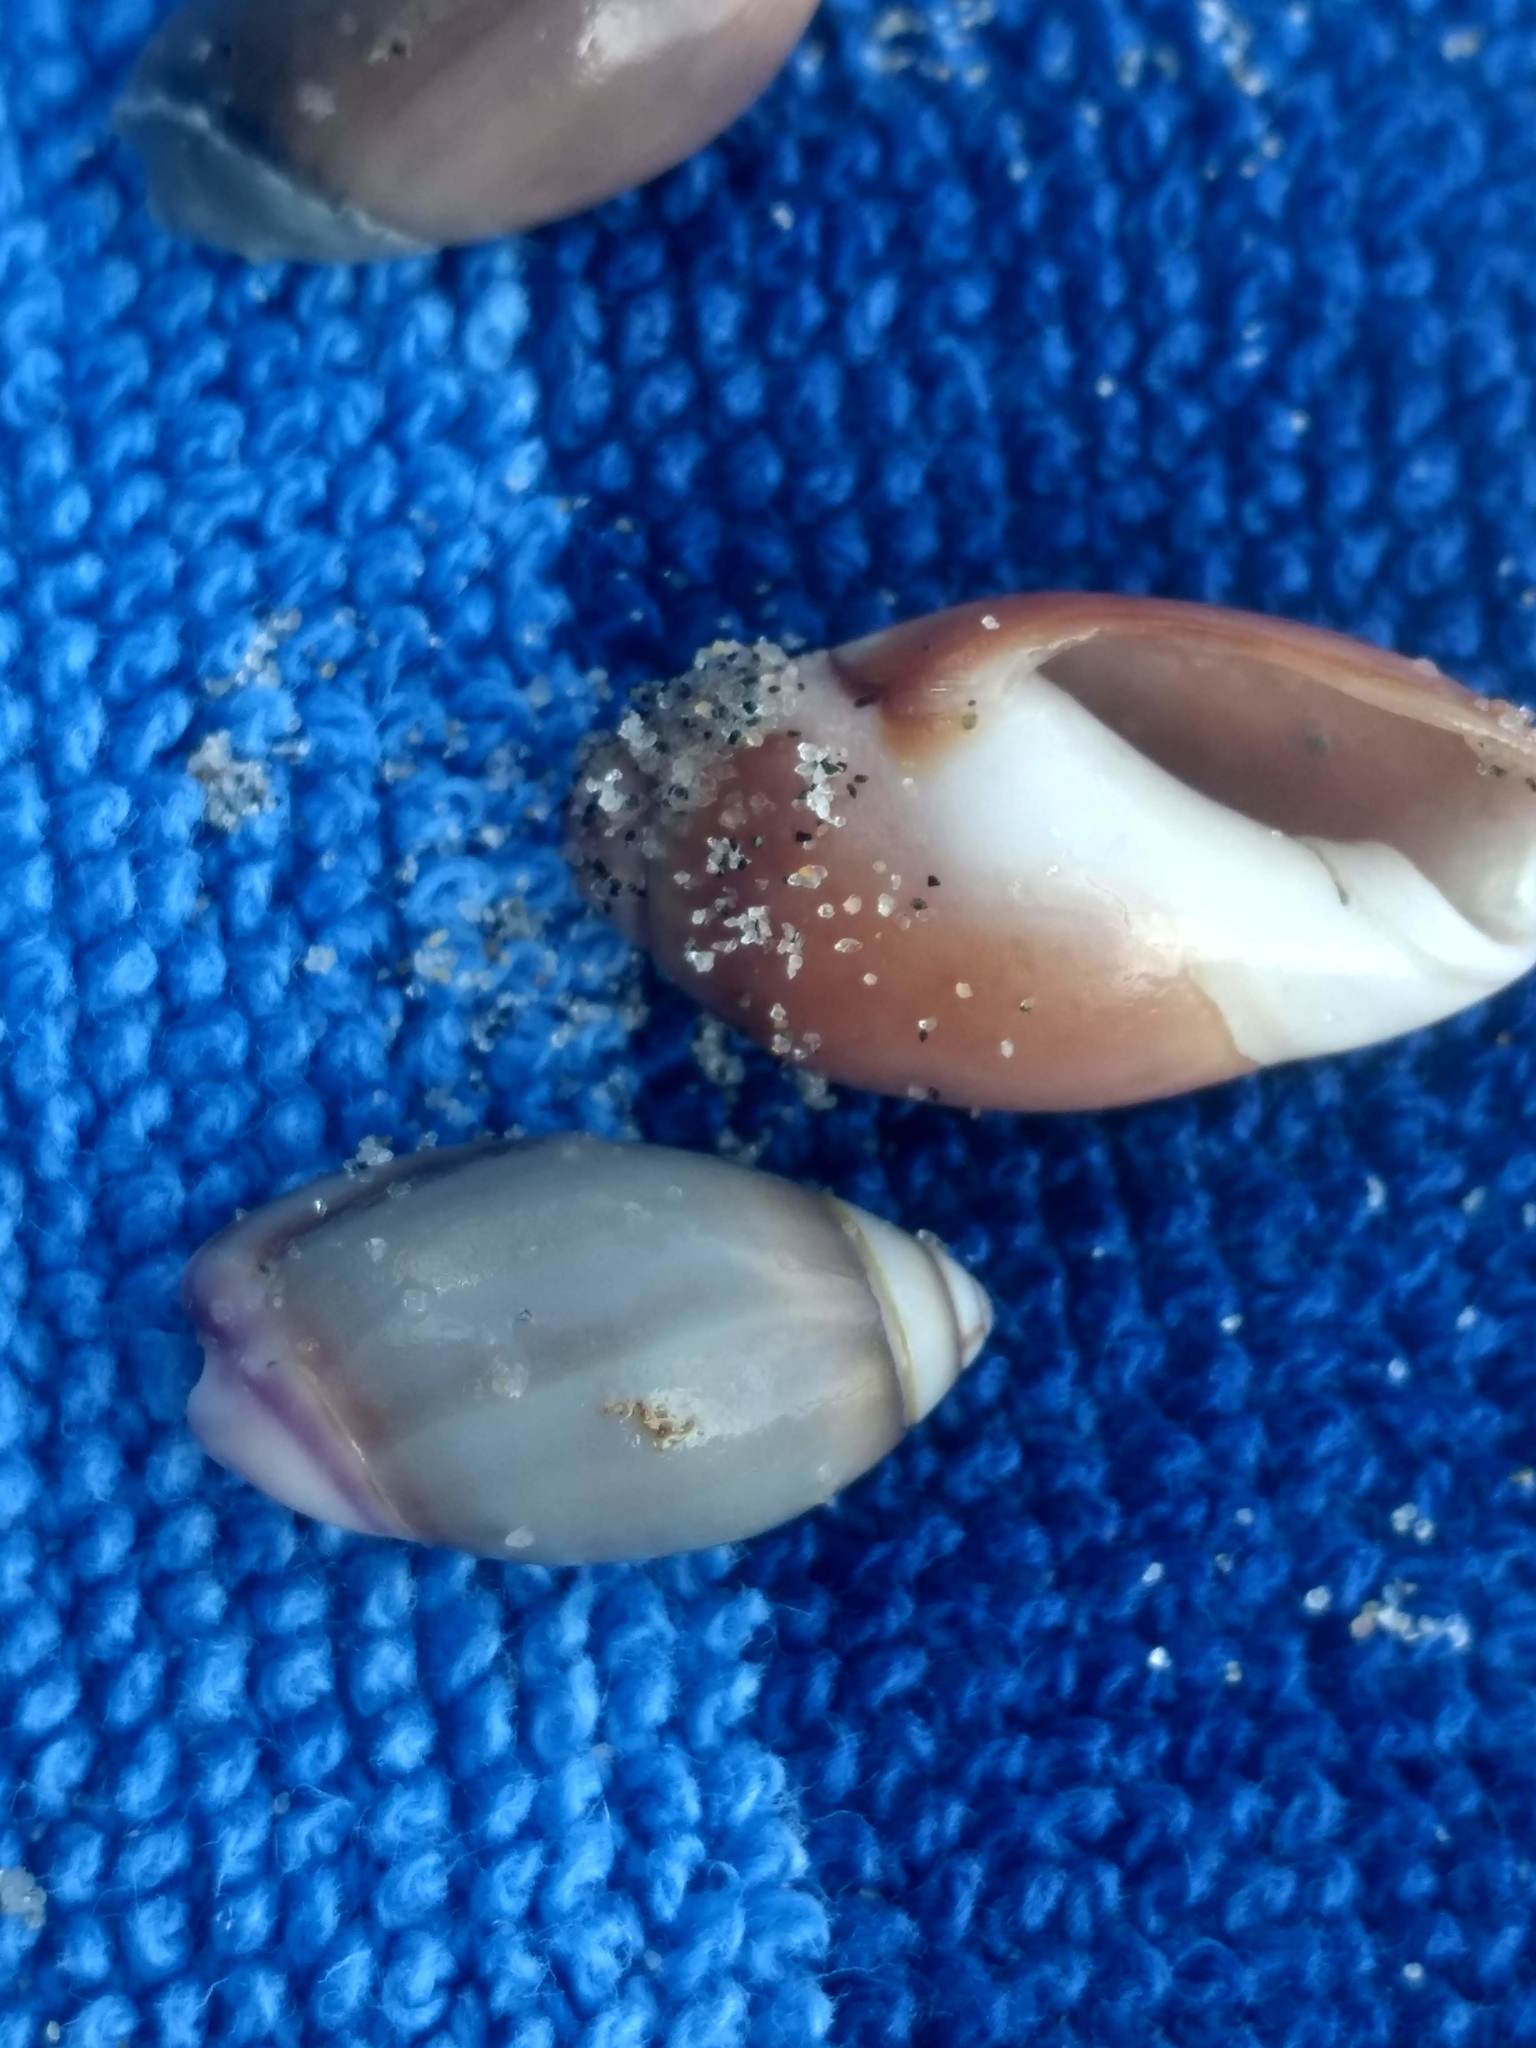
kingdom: Animalia
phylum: Mollusca
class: Gastropoda
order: Neogastropoda
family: Olividae
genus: Callianax
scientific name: Callianax biplicata
